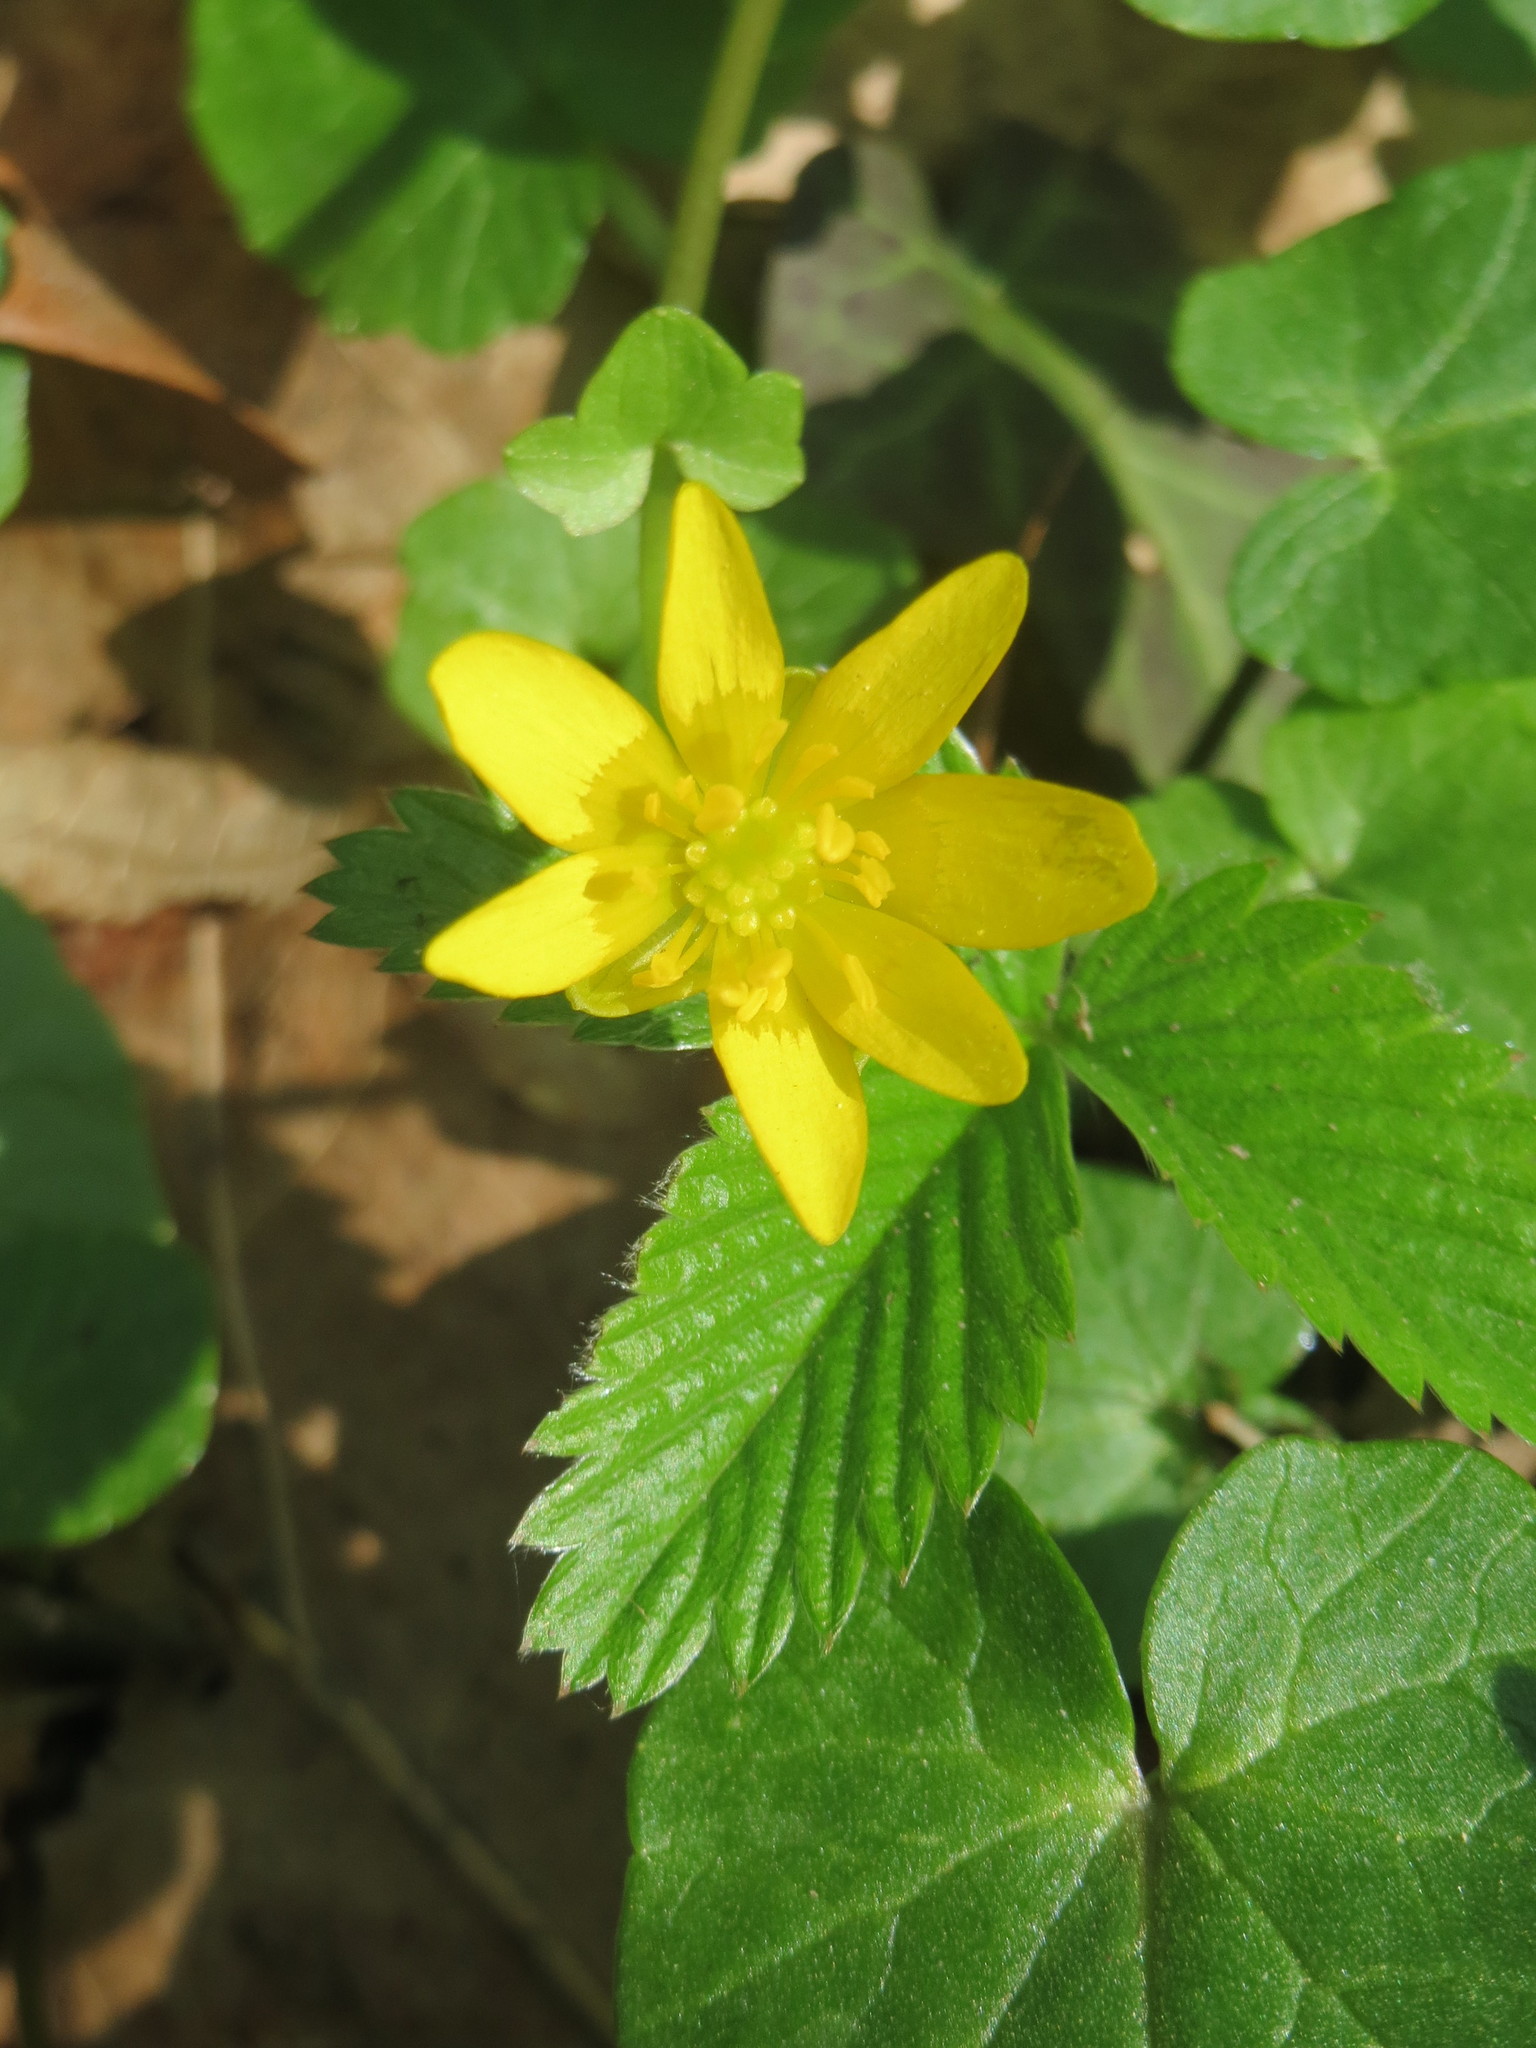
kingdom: Plantae
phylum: Tracheophyta
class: Magnoliopsida
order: Ranunculales
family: Ranunculaceae
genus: Ficaria
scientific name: Ficaria verna
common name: Lesser celandine
